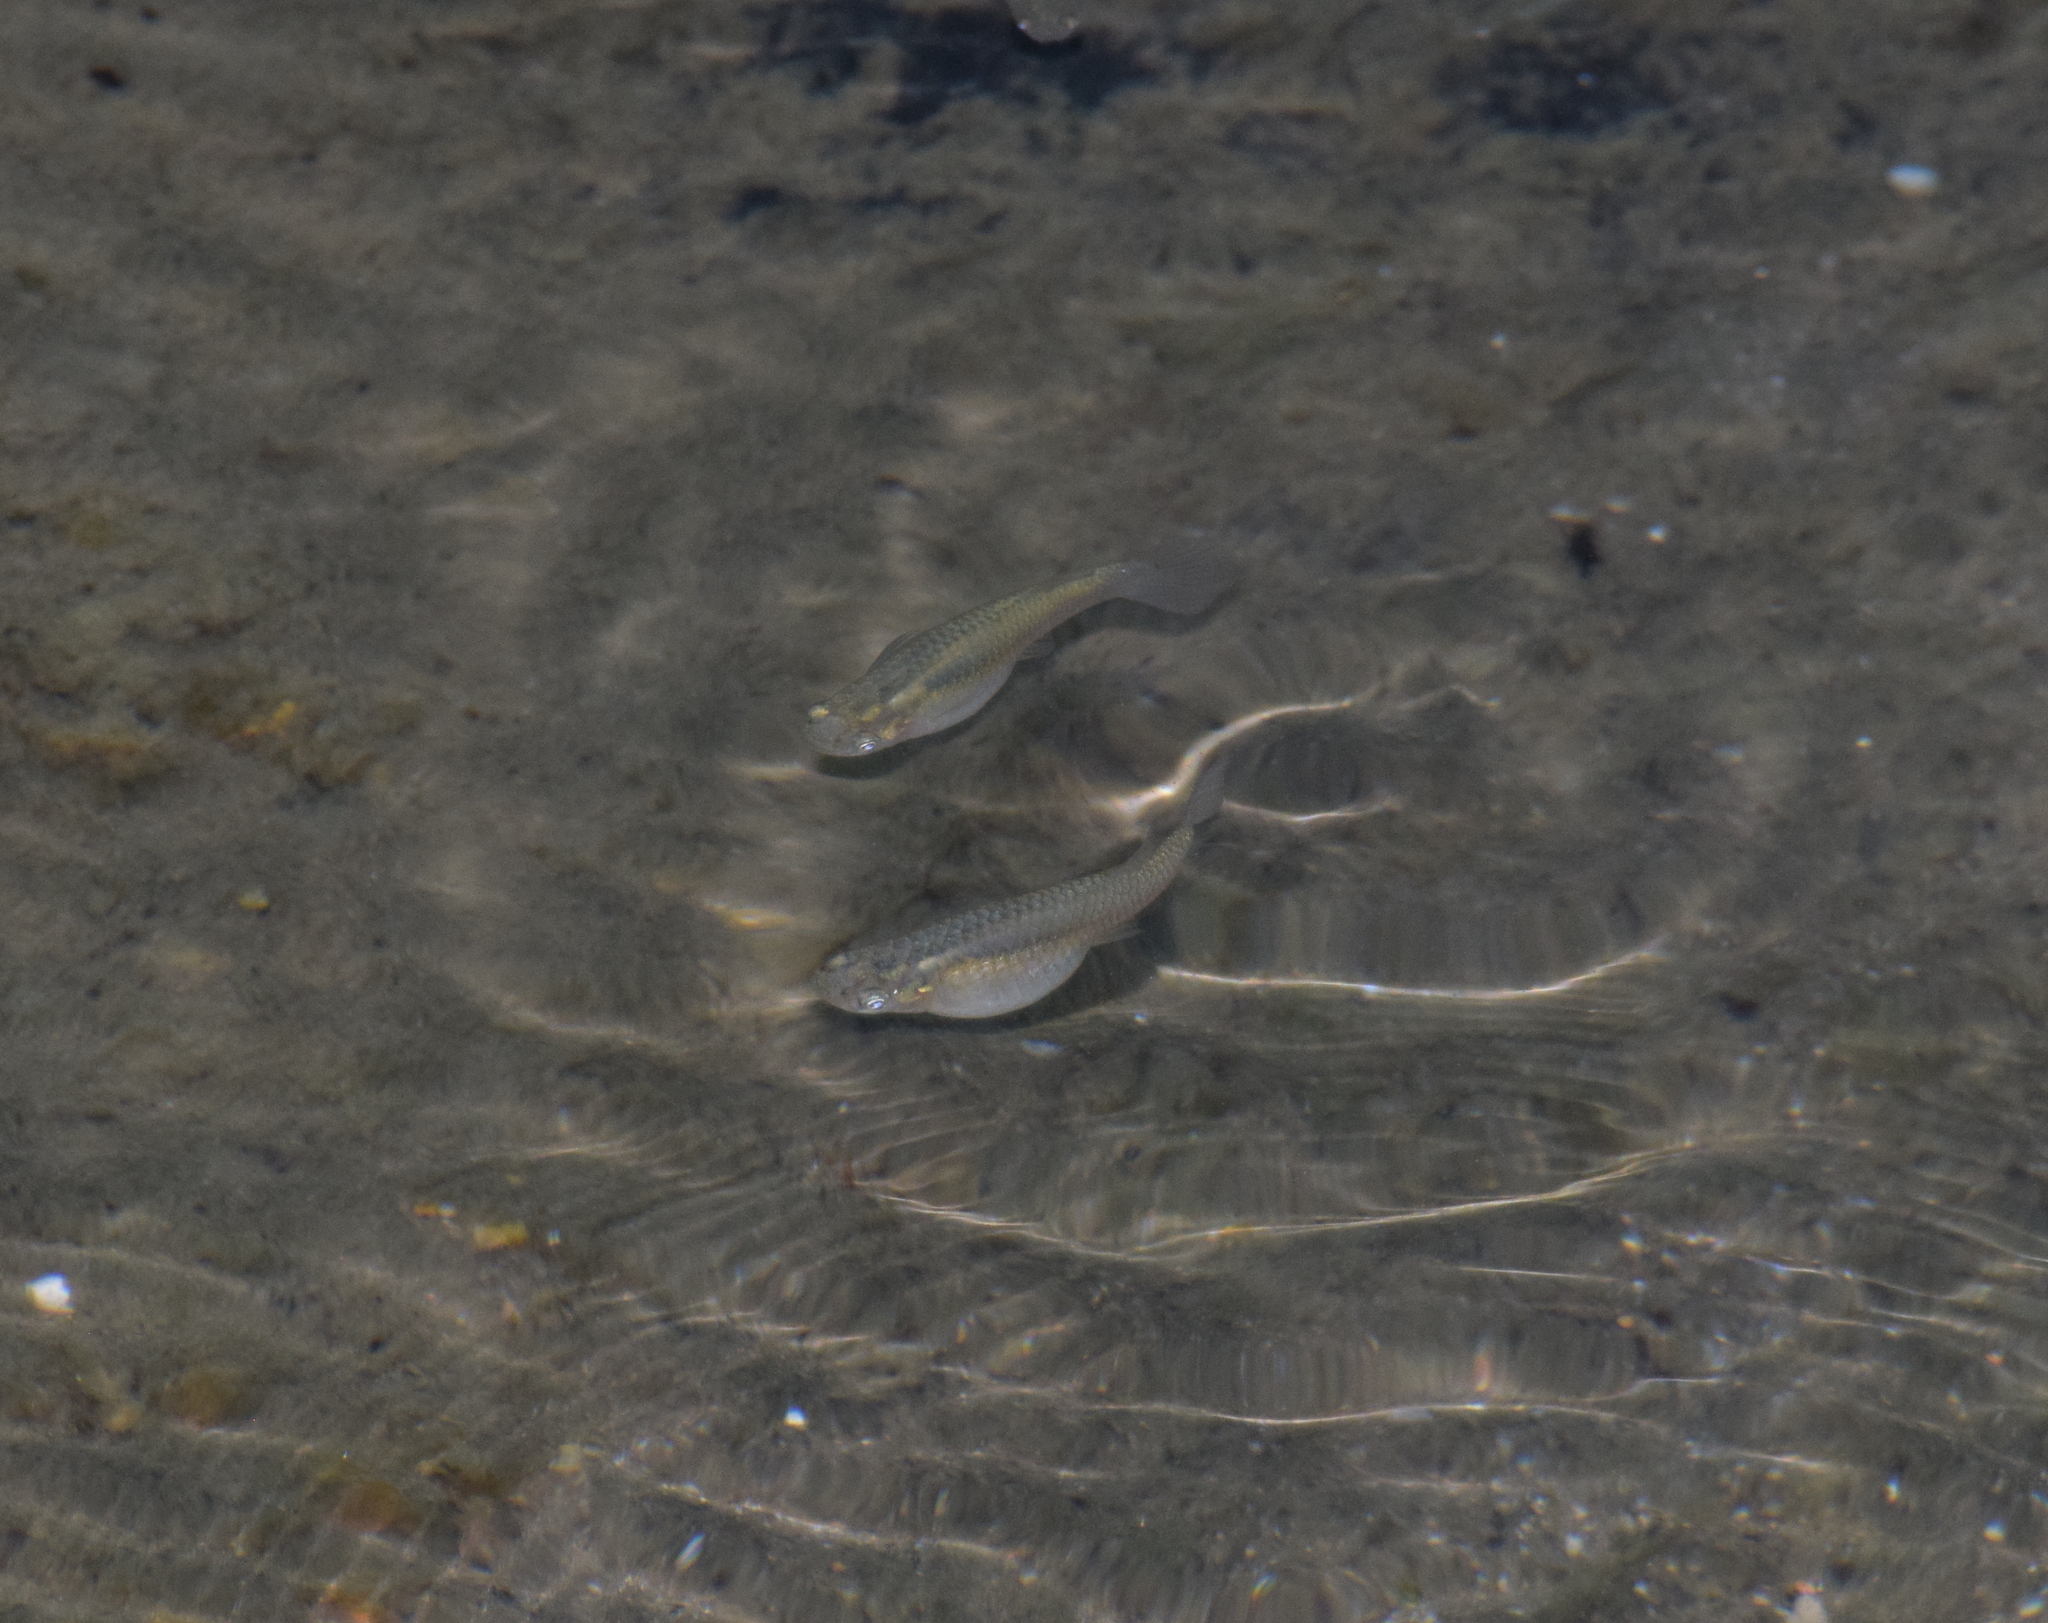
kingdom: Animalia
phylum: Chordata
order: Cyprinodontiformes
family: Poeciliidae
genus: Gambusia
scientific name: Gambusia affinis
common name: Mosquitofish
